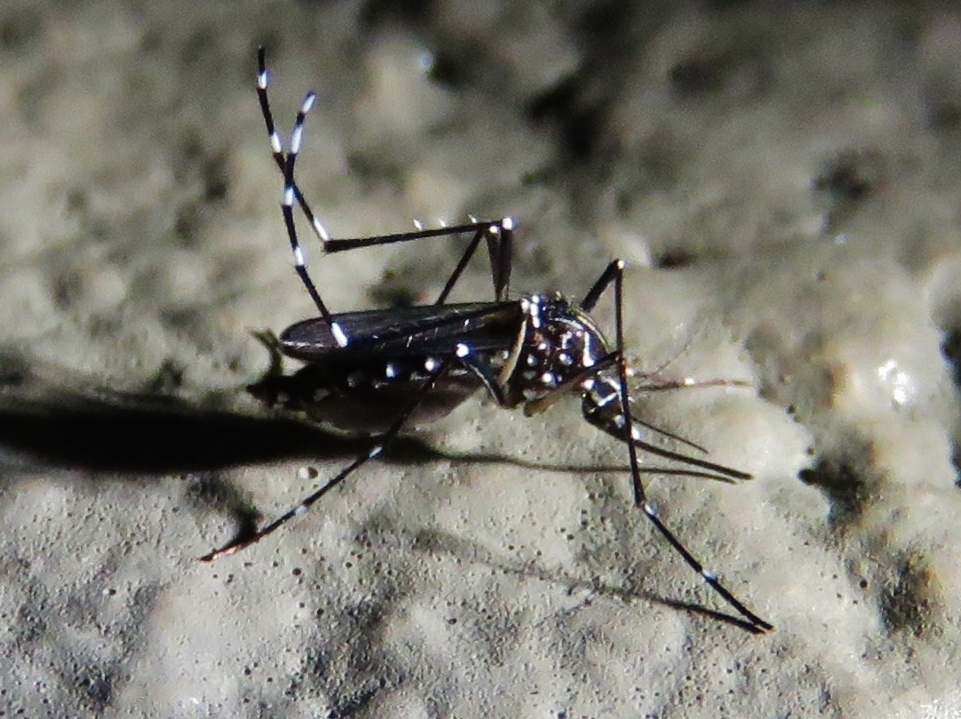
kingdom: Animalia
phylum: Arthropoda
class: Insecta
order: Diptera
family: Culicidae
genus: Aedes
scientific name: Aedes aegypti
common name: Yellow fever mosquito
